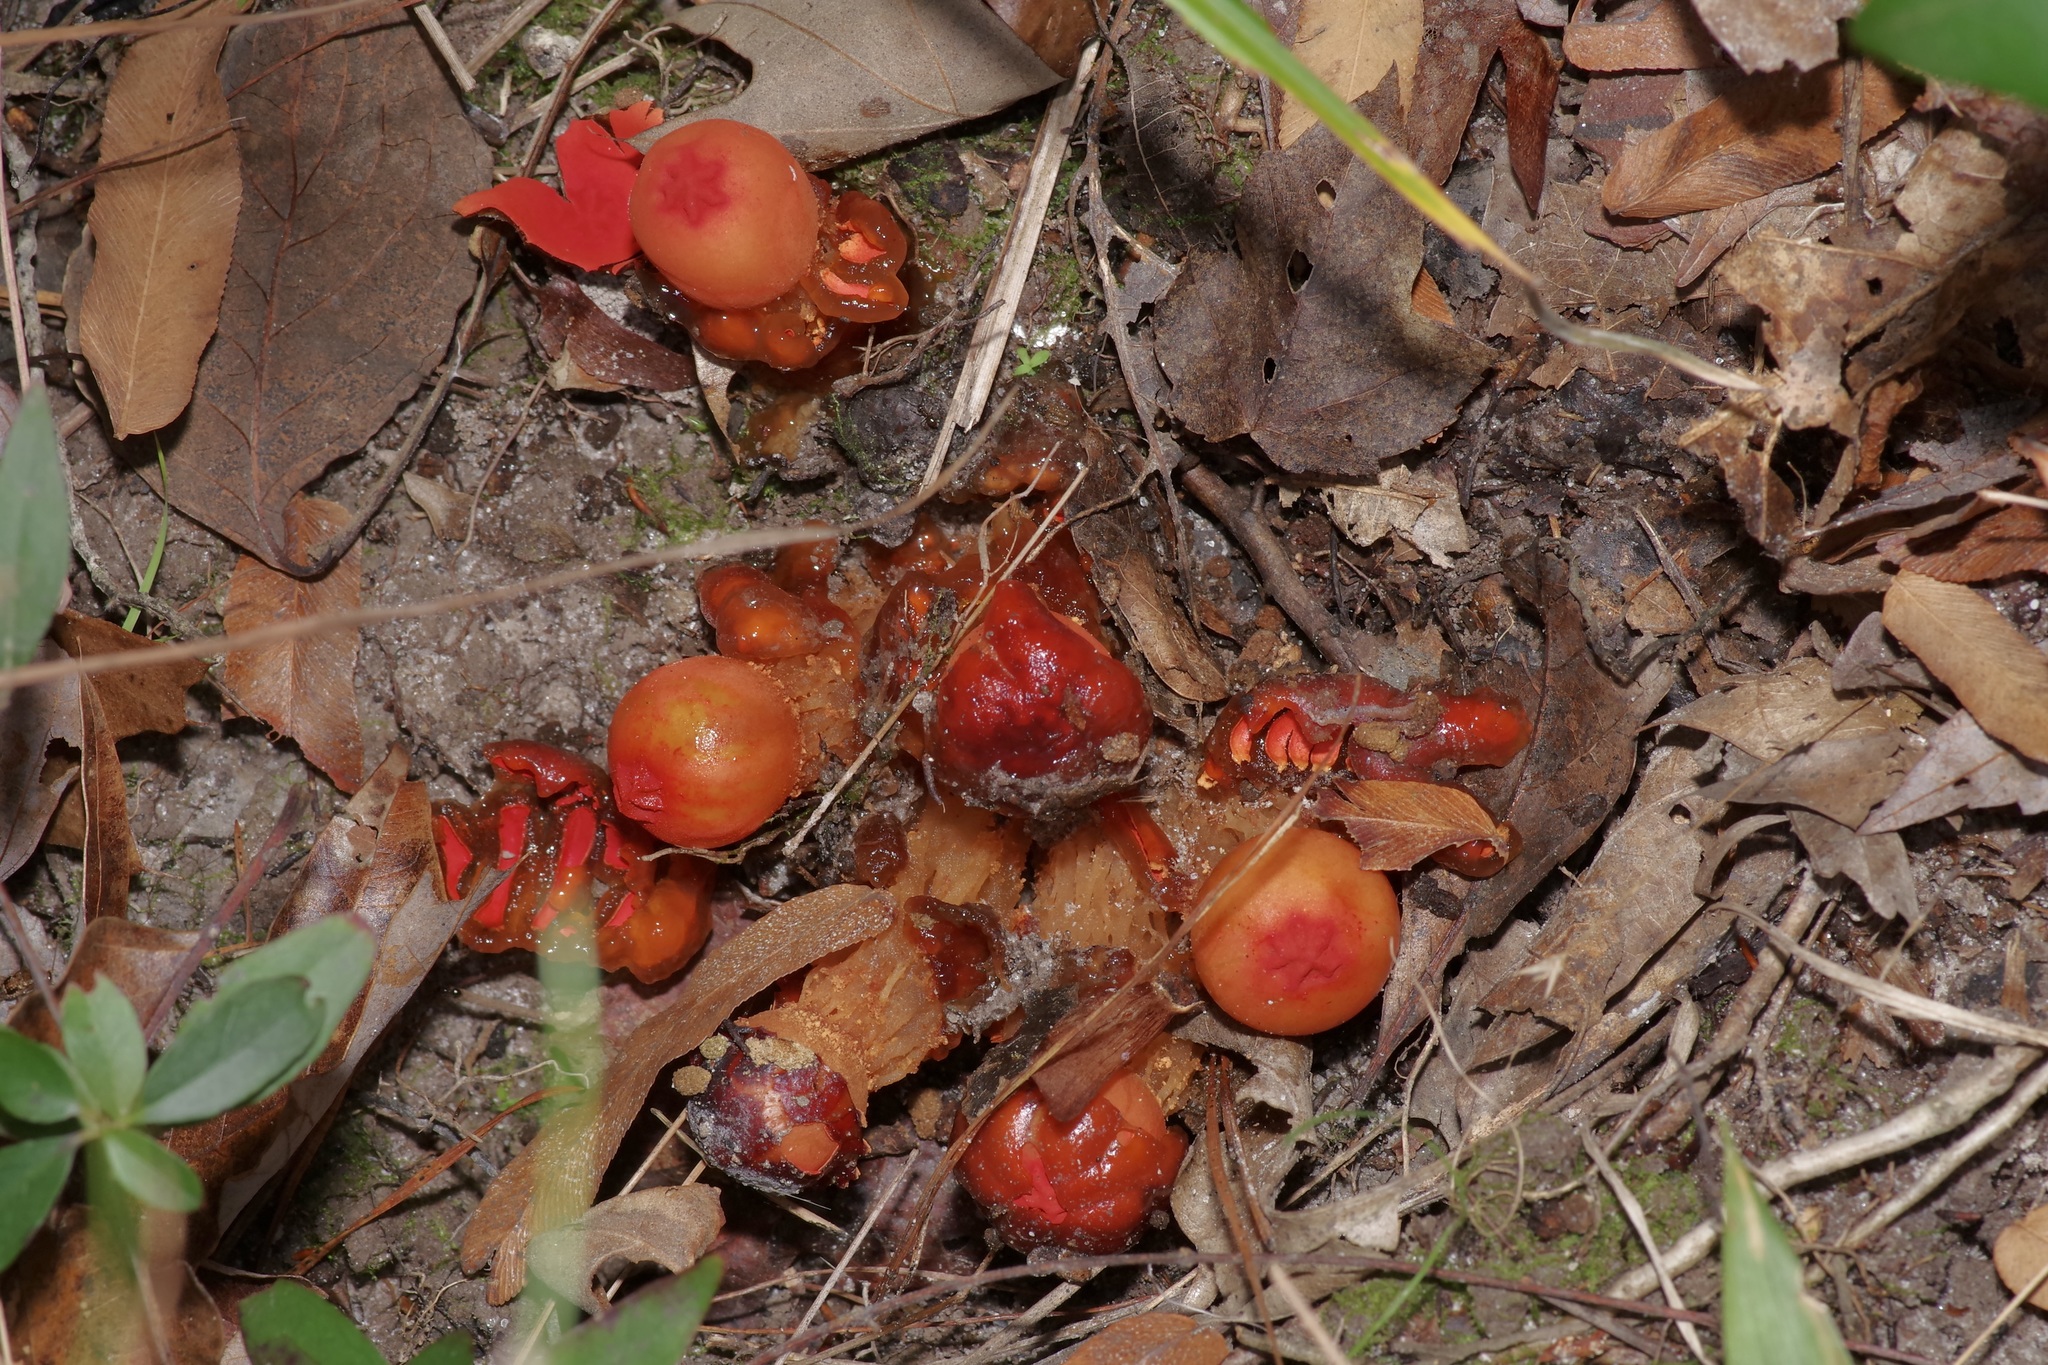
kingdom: Fungi
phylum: Basidiomycota
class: Agaricomycetes
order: Boletales
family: Calostomataceae
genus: Calostoma
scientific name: Calostoma cinnabarinum
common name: Stalked puffball-in-aspic
